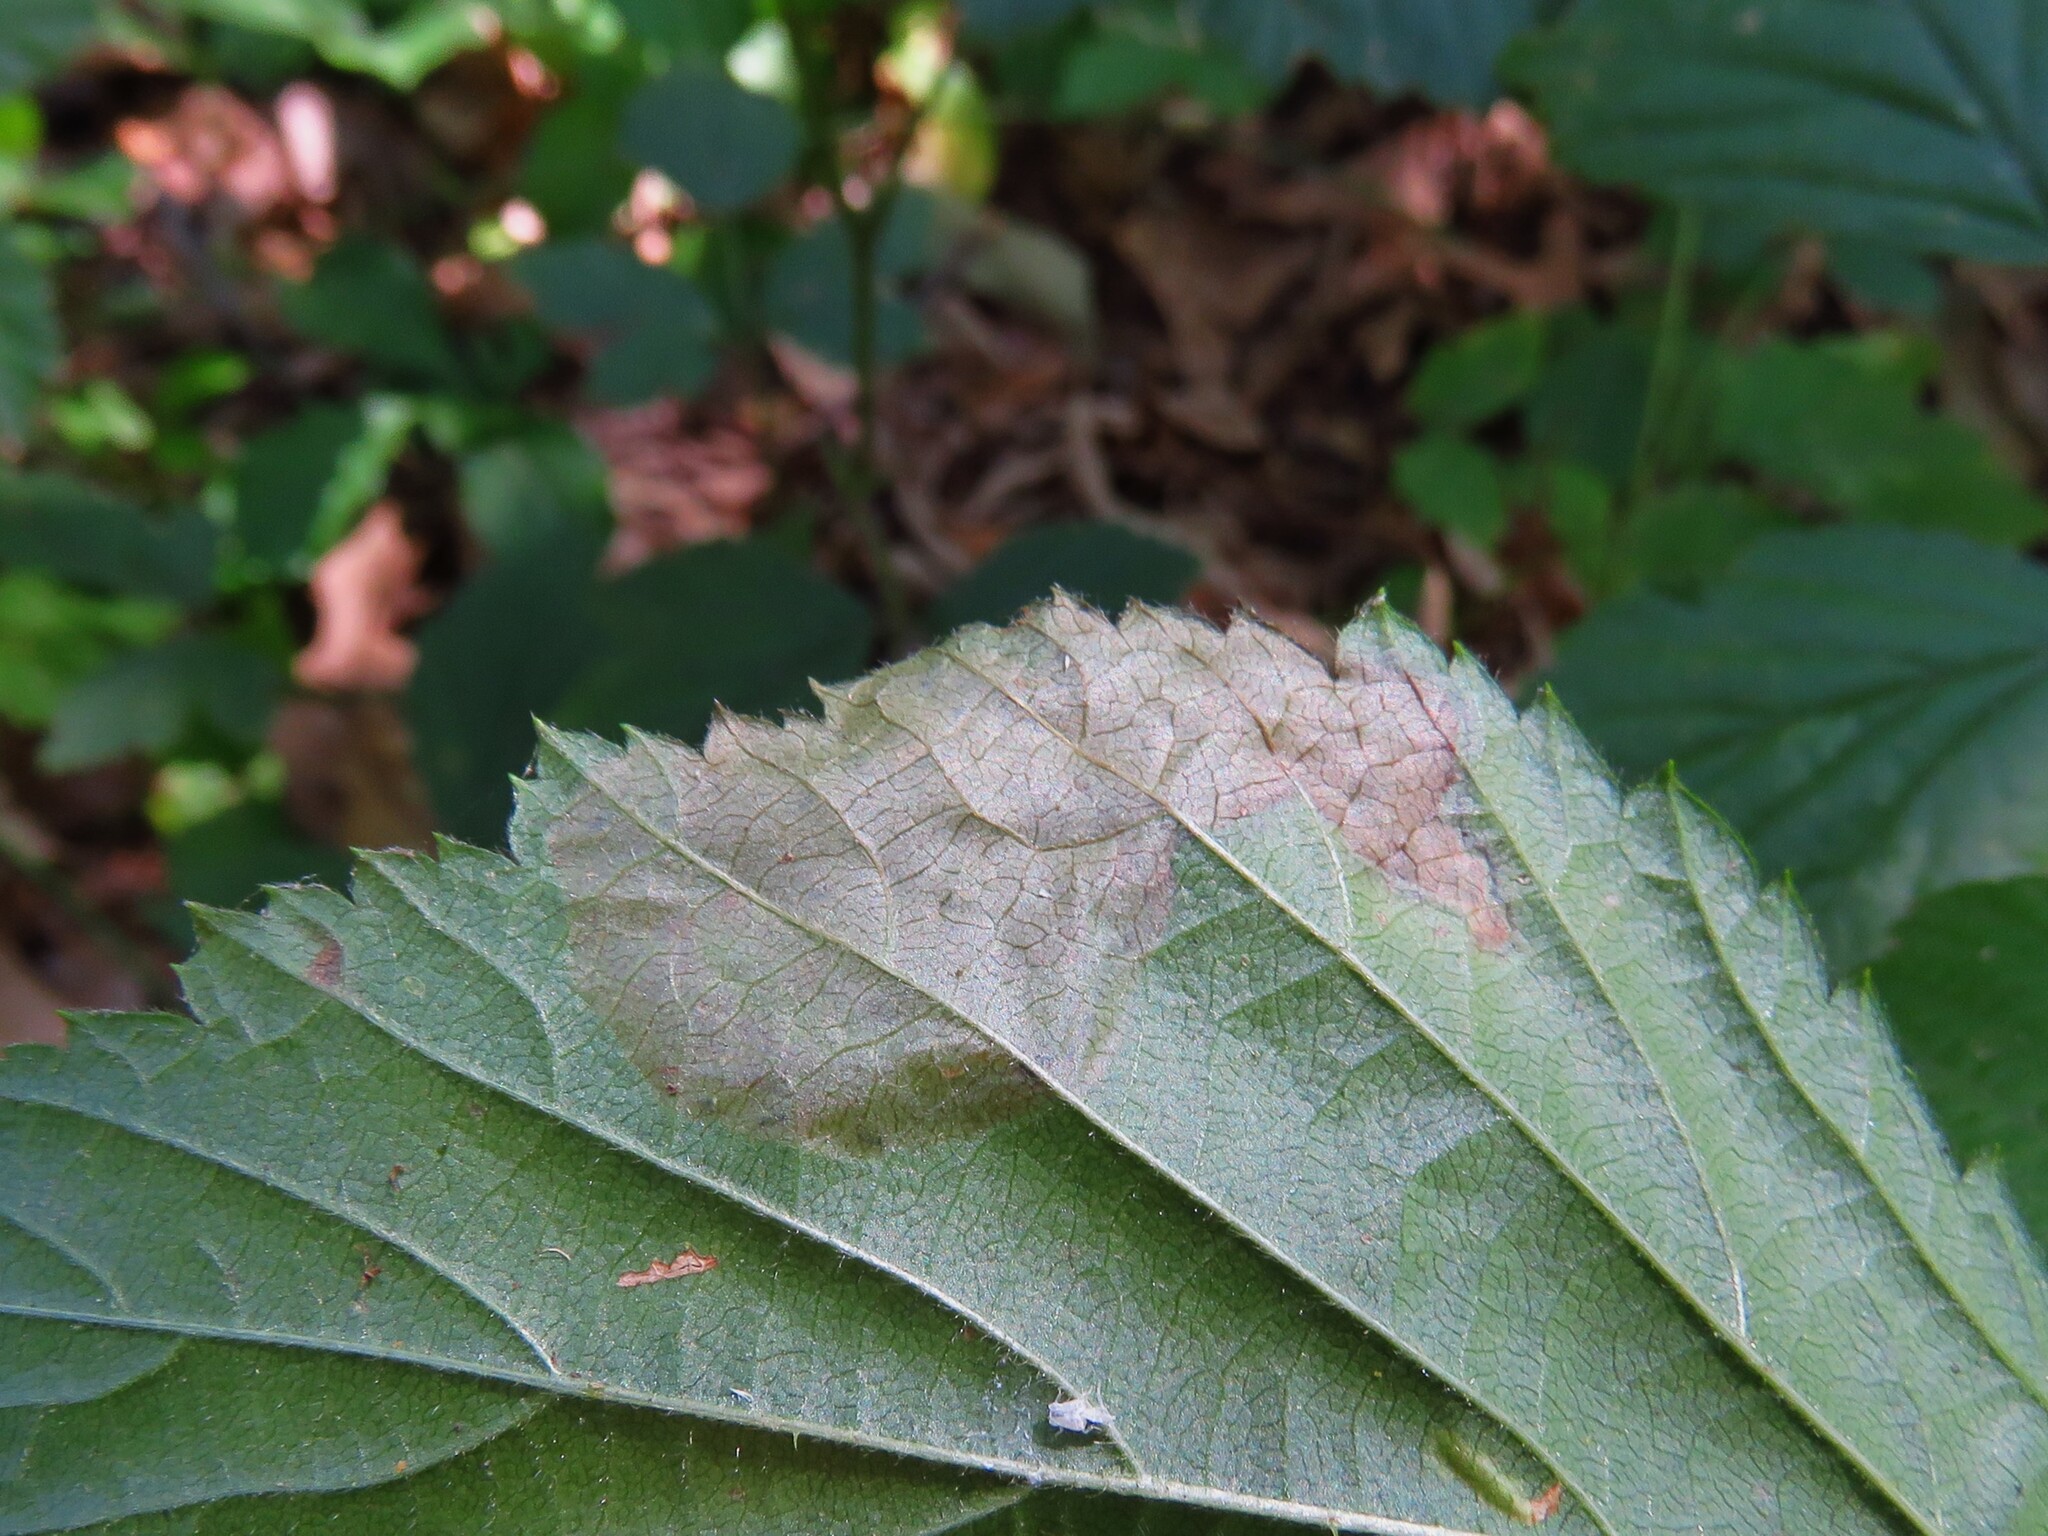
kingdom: Animalia
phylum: Arthropoda
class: Insecta
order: Hymenoptera
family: Tenthredinidae
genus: Metallus
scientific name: Metallus rohweri
